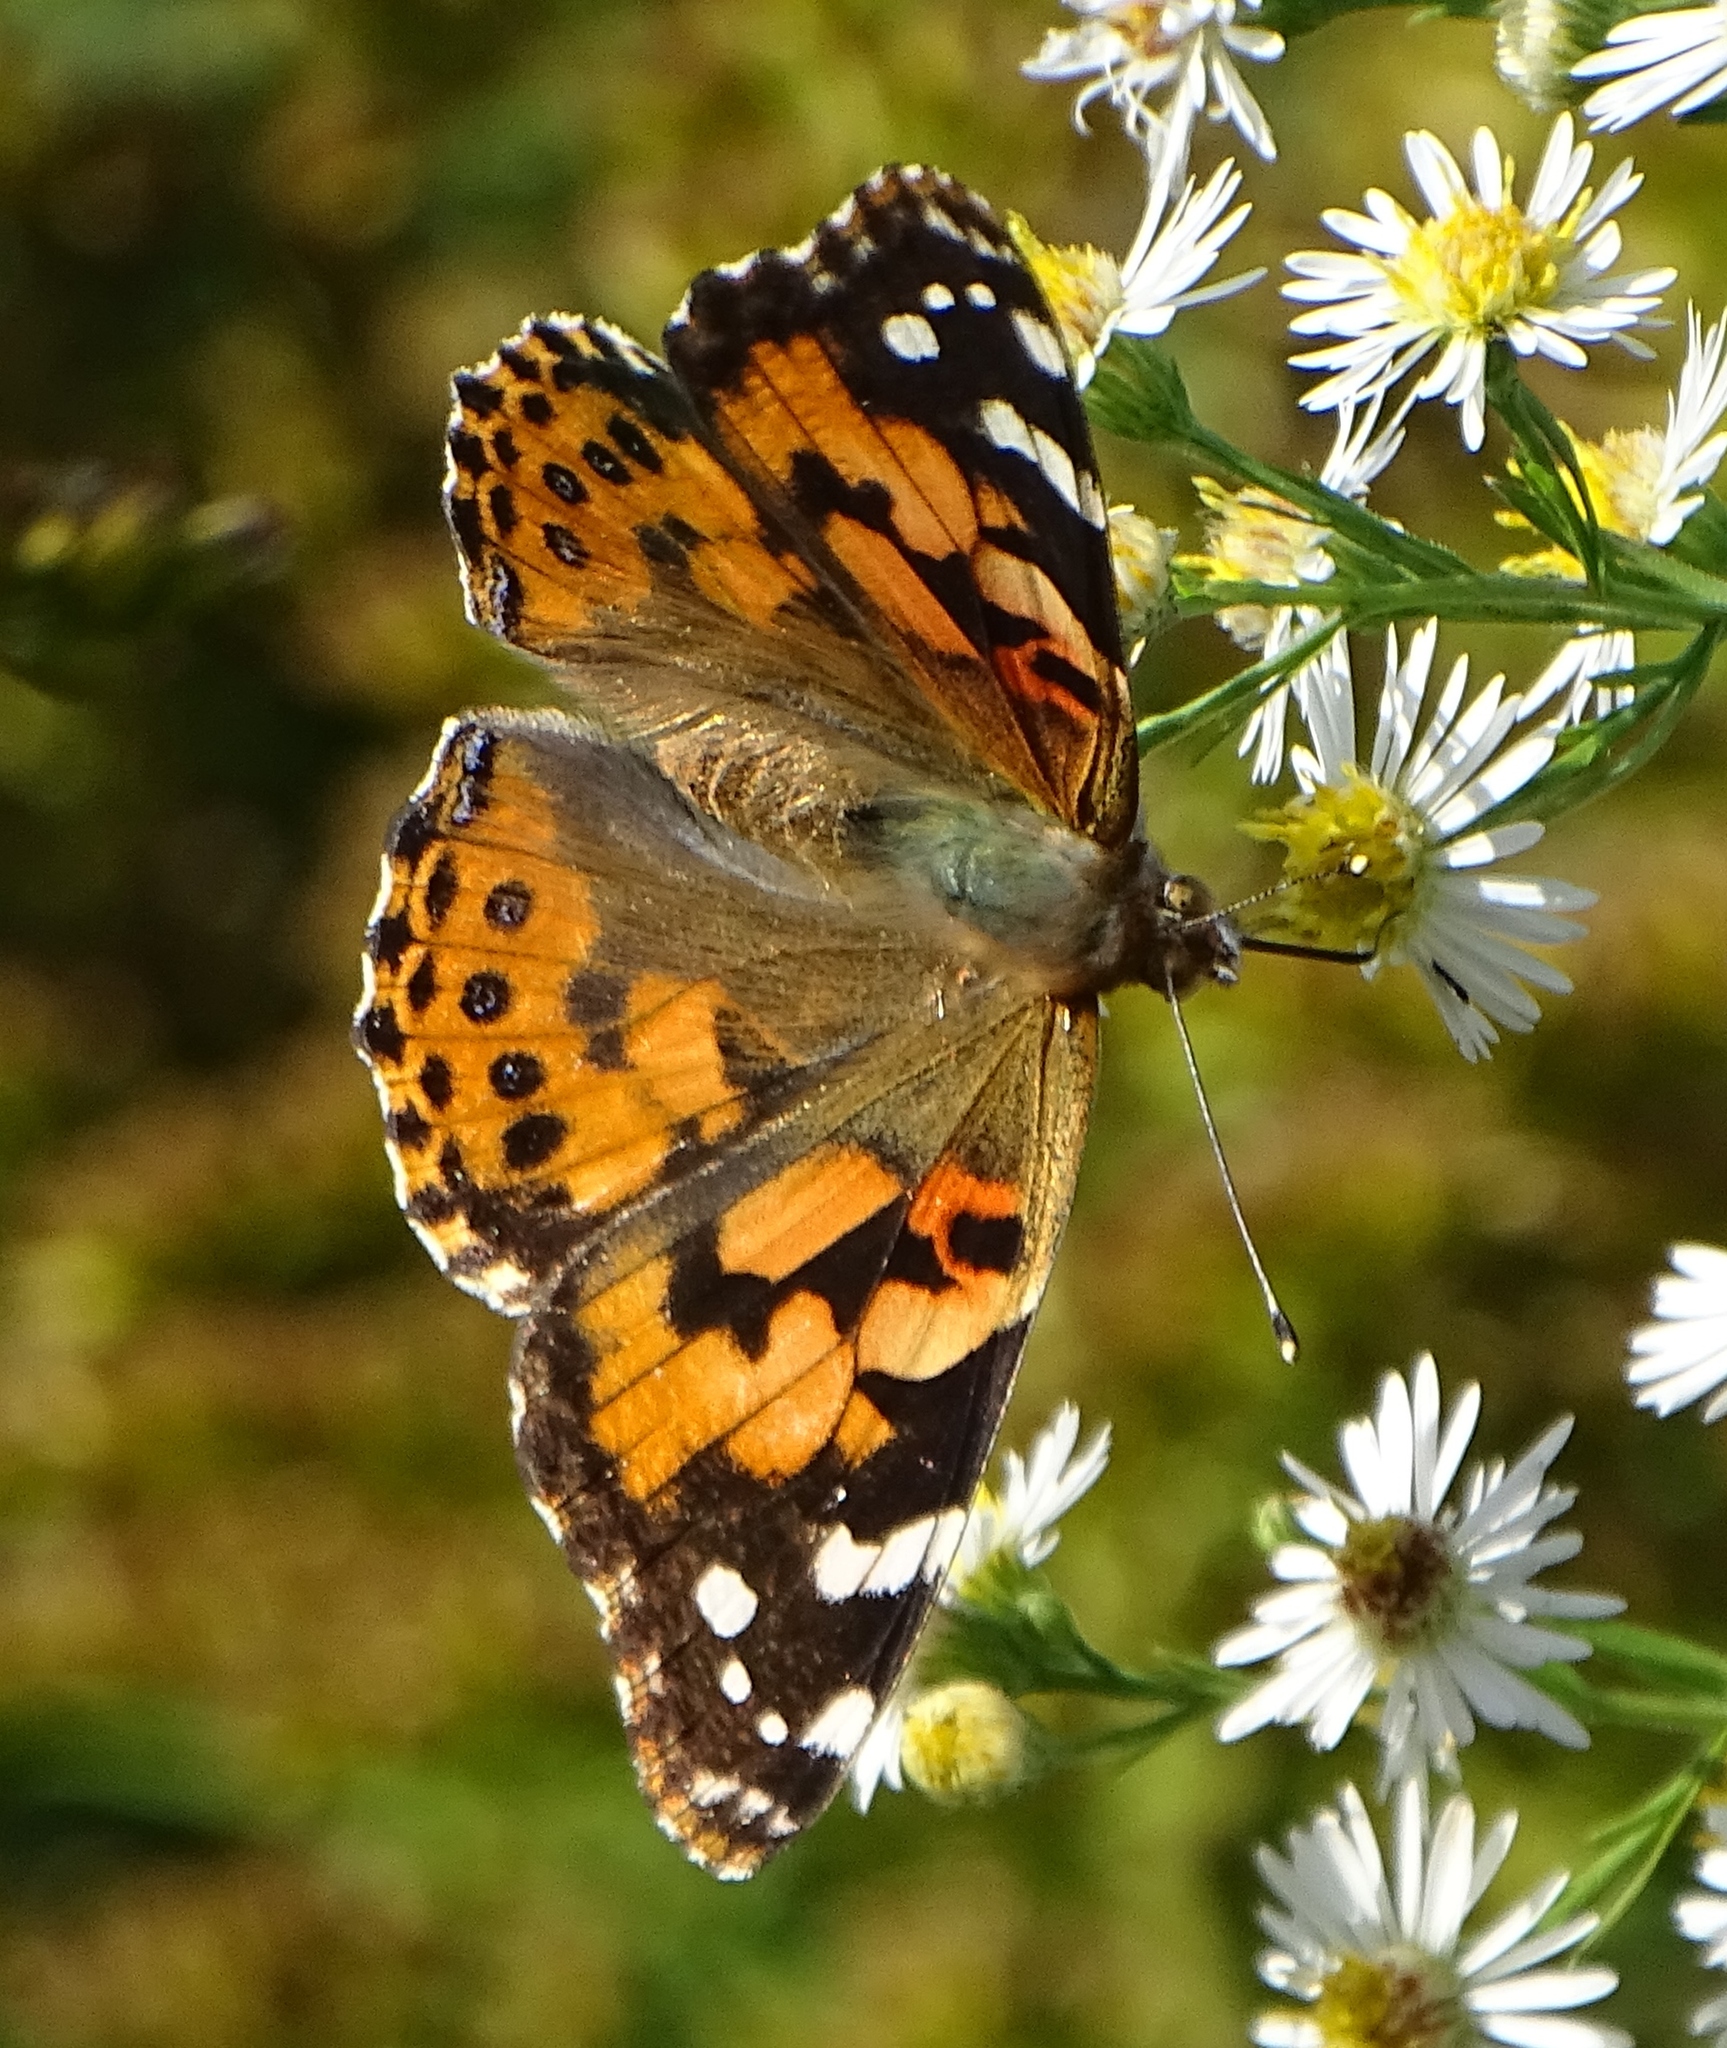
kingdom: Animalia
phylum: Arthropoda
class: Insecta
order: Lepidoptera
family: Nymphalidae
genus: Vanessa
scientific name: Vanessa cardui
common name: Painted lady
